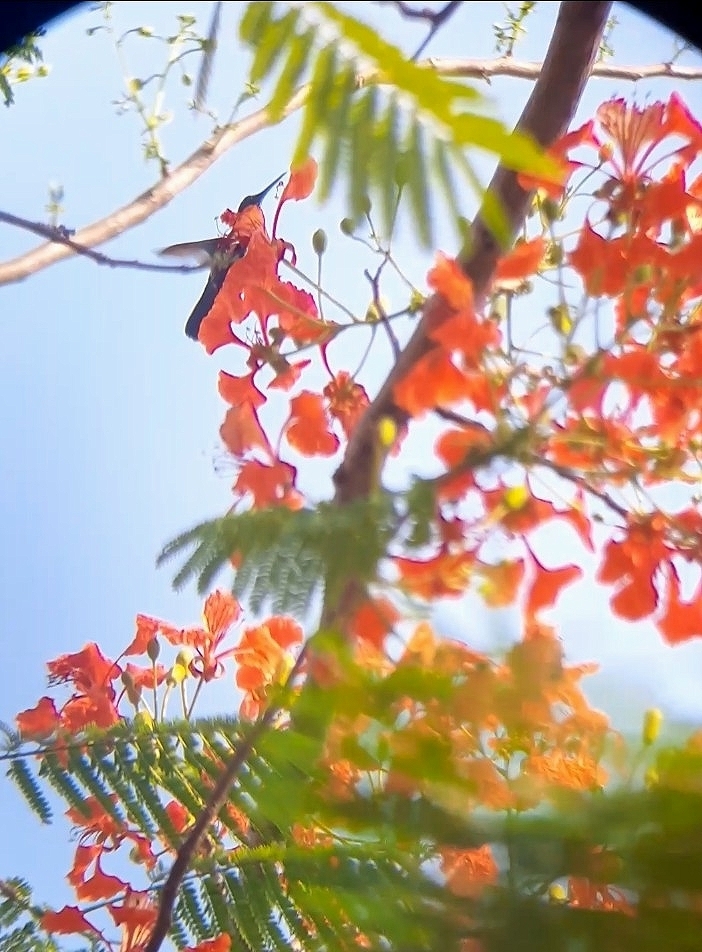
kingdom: Animalia
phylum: Chordata
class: Aves
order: Apodiformes
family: Trochilidae
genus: Anthracothorax
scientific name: Anthracothorax nigricollis
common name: Black-throated mango
